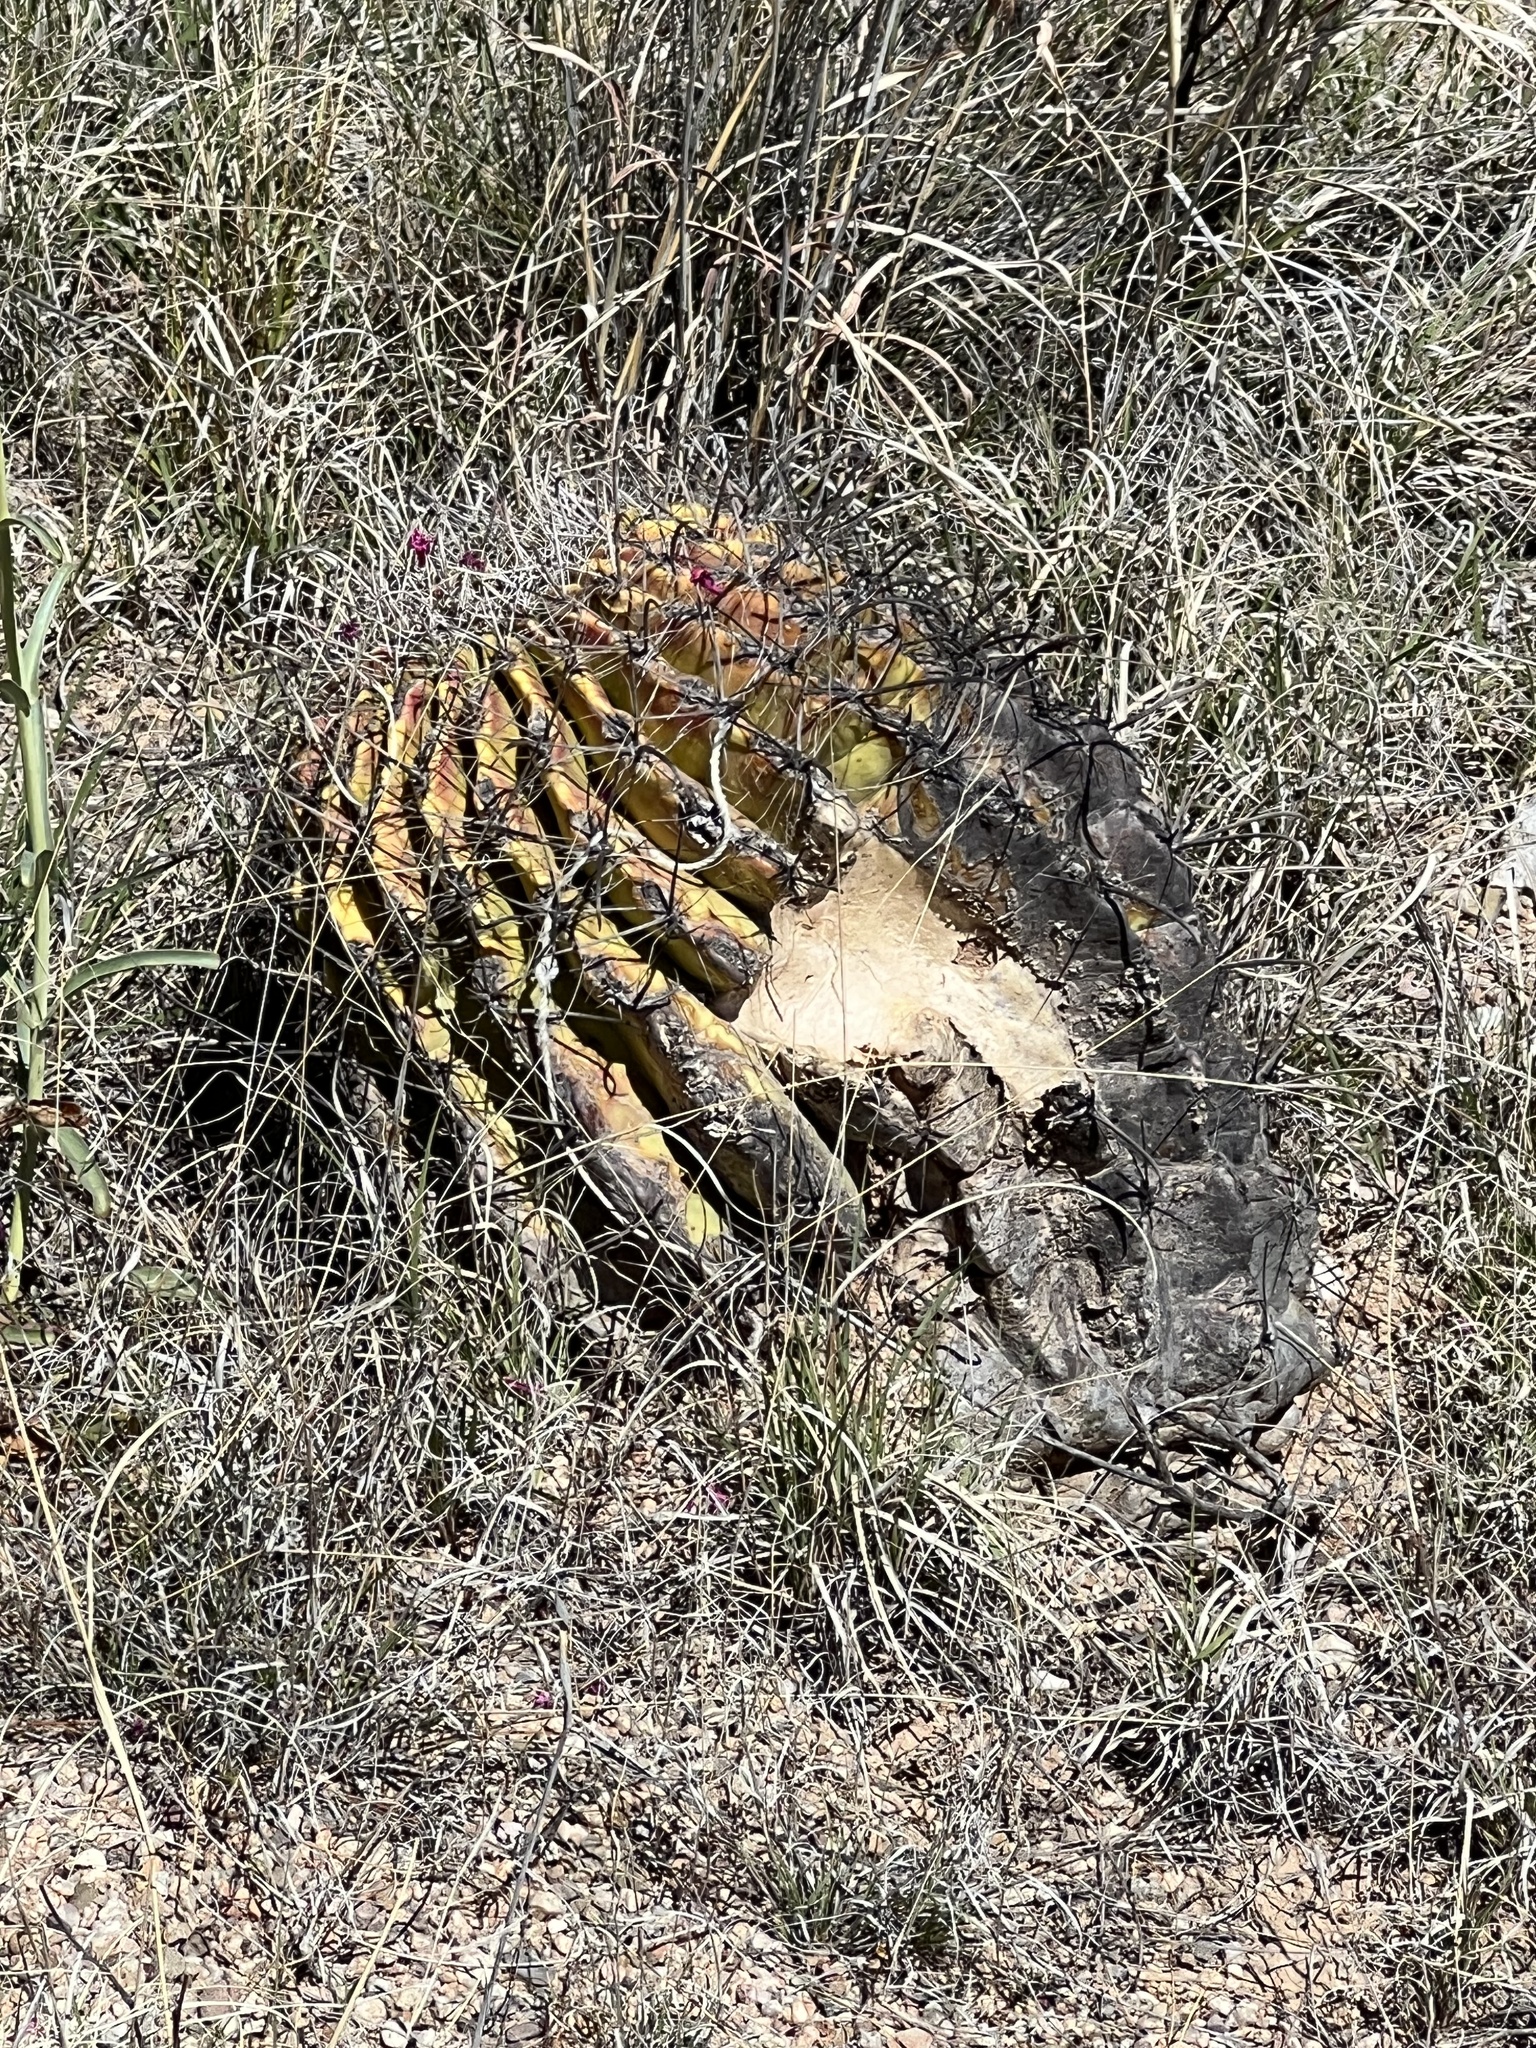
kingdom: Plantae
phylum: Tracheophyta
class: Magnoliopsida
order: Caryophyllales
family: Cactaceae
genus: Ferocactus
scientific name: Ferocactus wislizeni
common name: Candy barrel cactus
